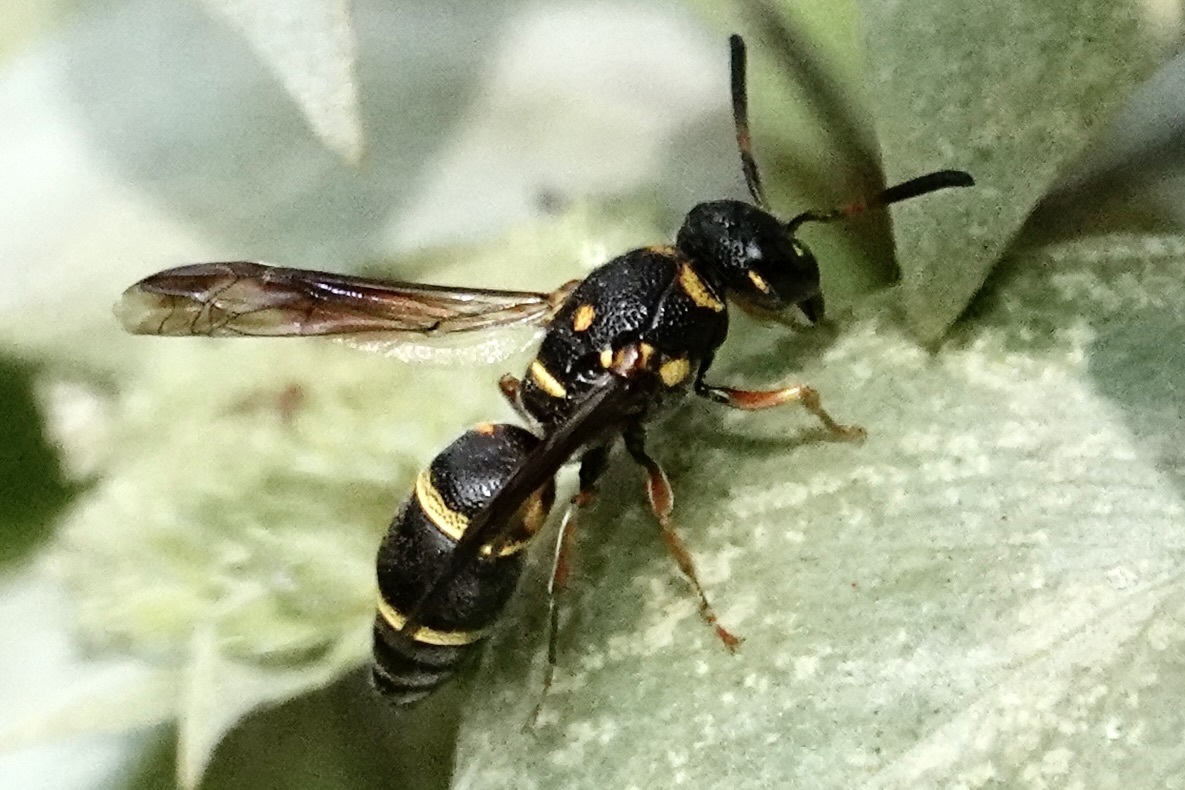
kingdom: Animalia
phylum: Arthropoda
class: Insecta
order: Hymenoptera
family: Eumenidae
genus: Parancistrocerus
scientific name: Parancistrocerus fulvipes
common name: Potter wasp
